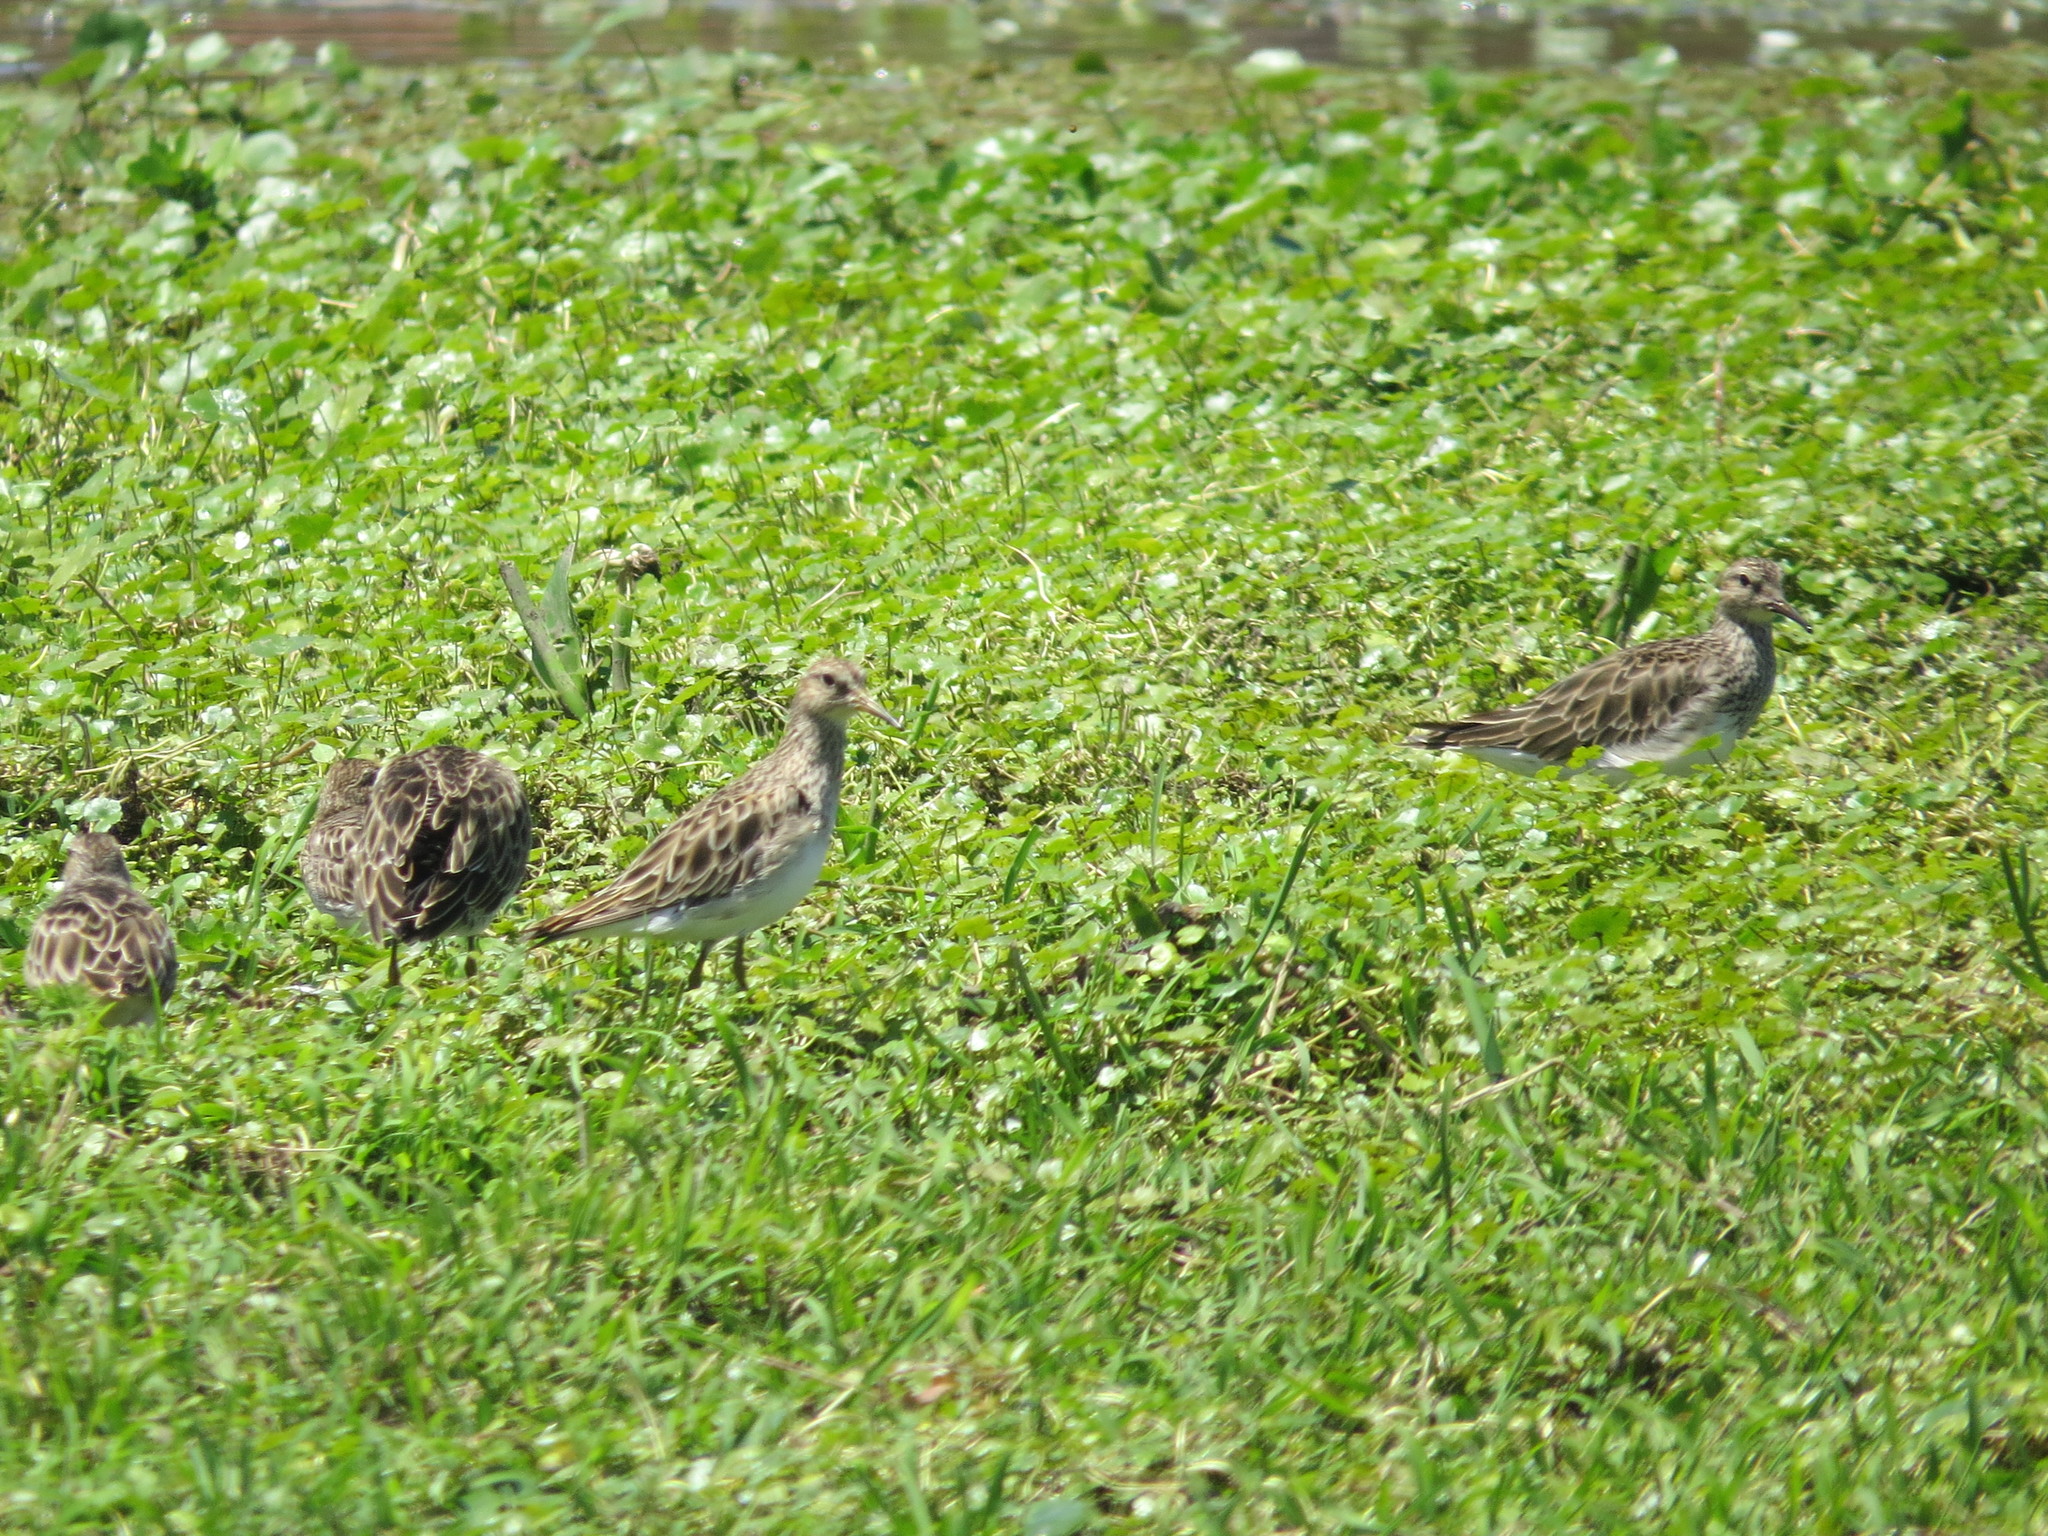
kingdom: Animalia
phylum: Chordata
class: Aves
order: Charadriiformes
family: Scolopacidae
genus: Calidris
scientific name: Calidris melanotos
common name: Pectoral sandpiper
